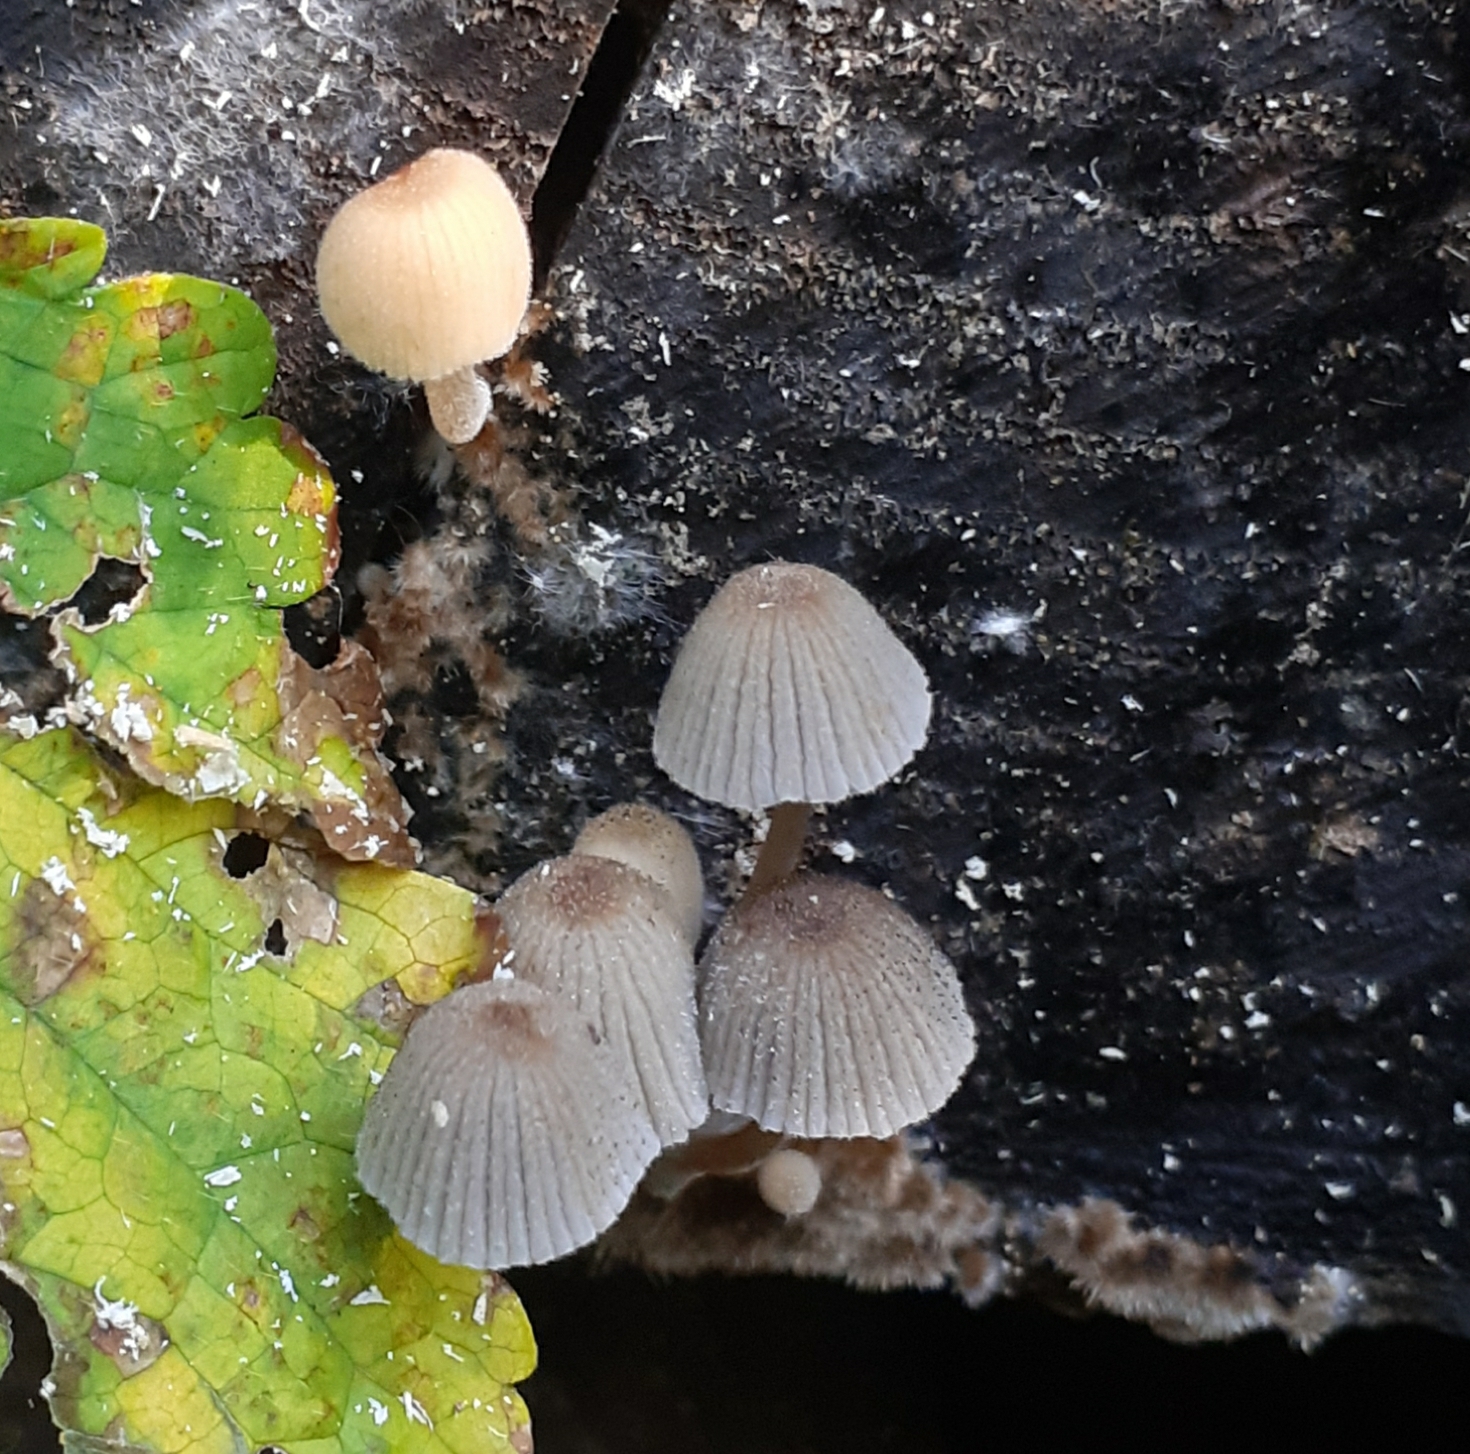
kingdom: Fungi
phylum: Basidiomycota
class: Agaricomycetes
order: Agaricales
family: Psathyrellaceae
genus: Coprinellus
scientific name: Coprinellus disseminatus
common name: Fairies' bonnets
